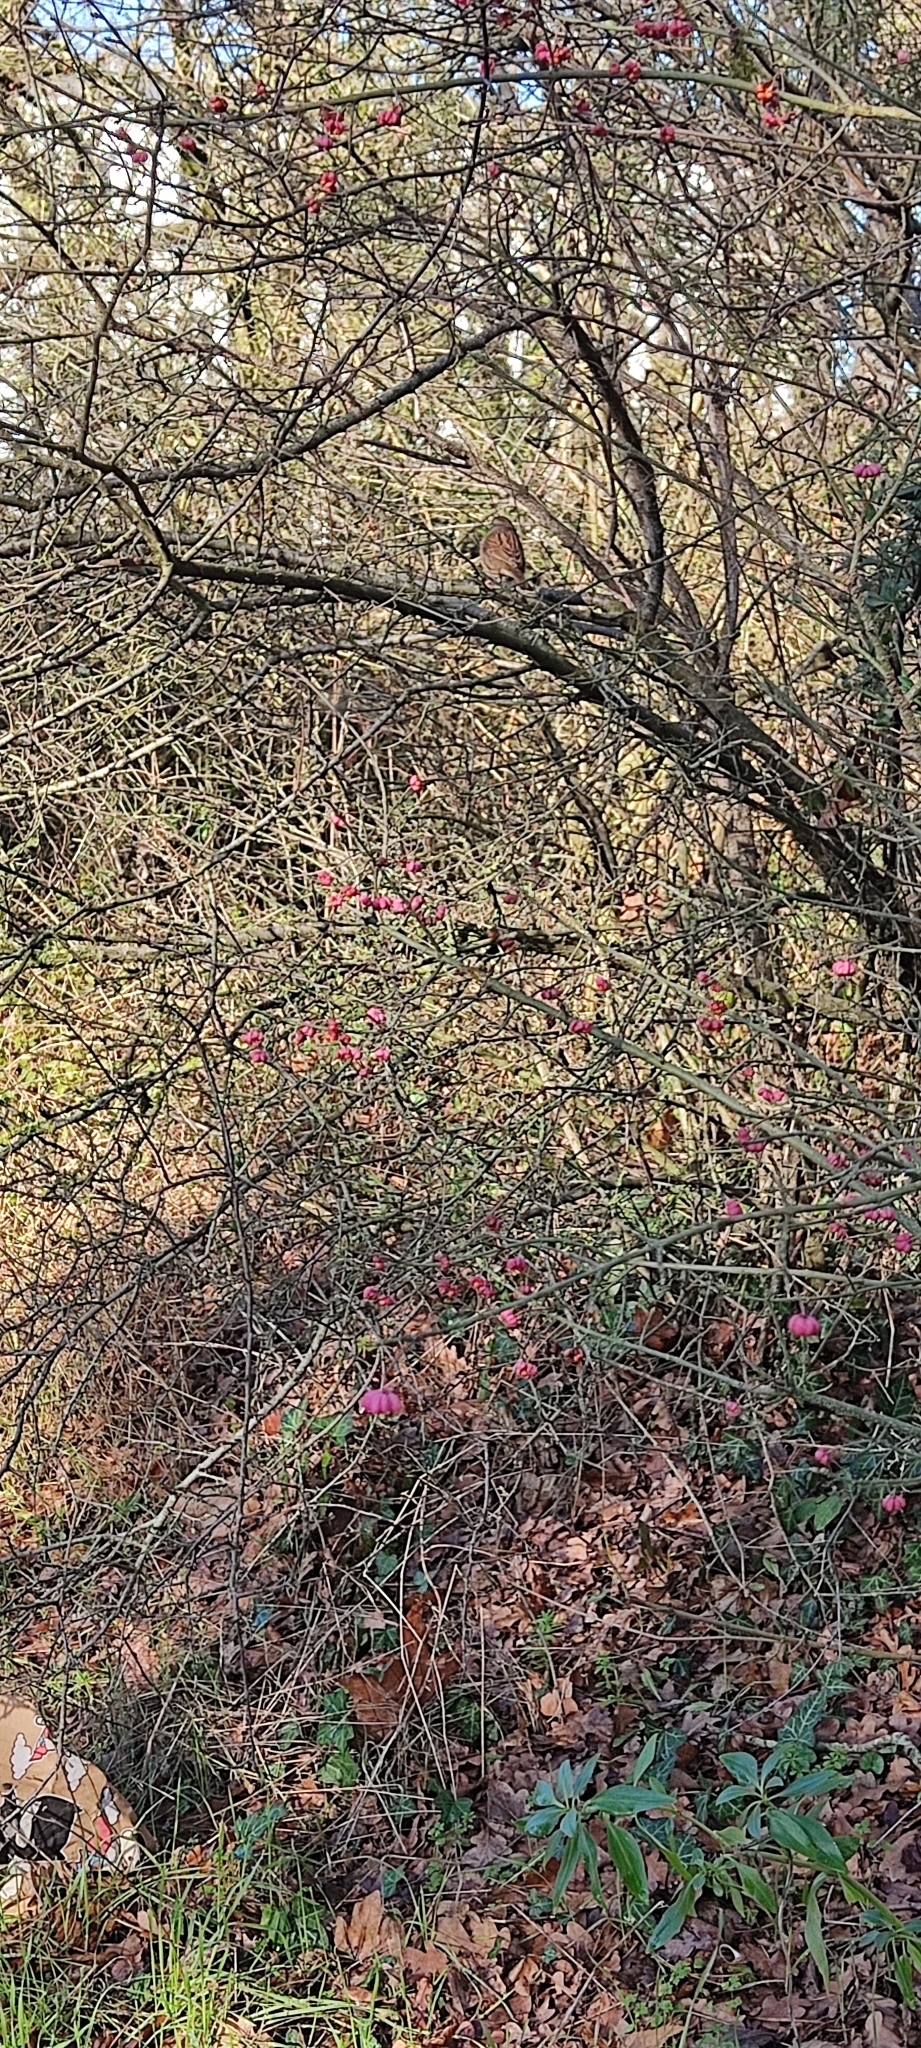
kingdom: Animalia
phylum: Chordata
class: Aves
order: Passeriformes
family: Prunellidae
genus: Prunella
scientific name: Prunella modularis
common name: Dunnock
